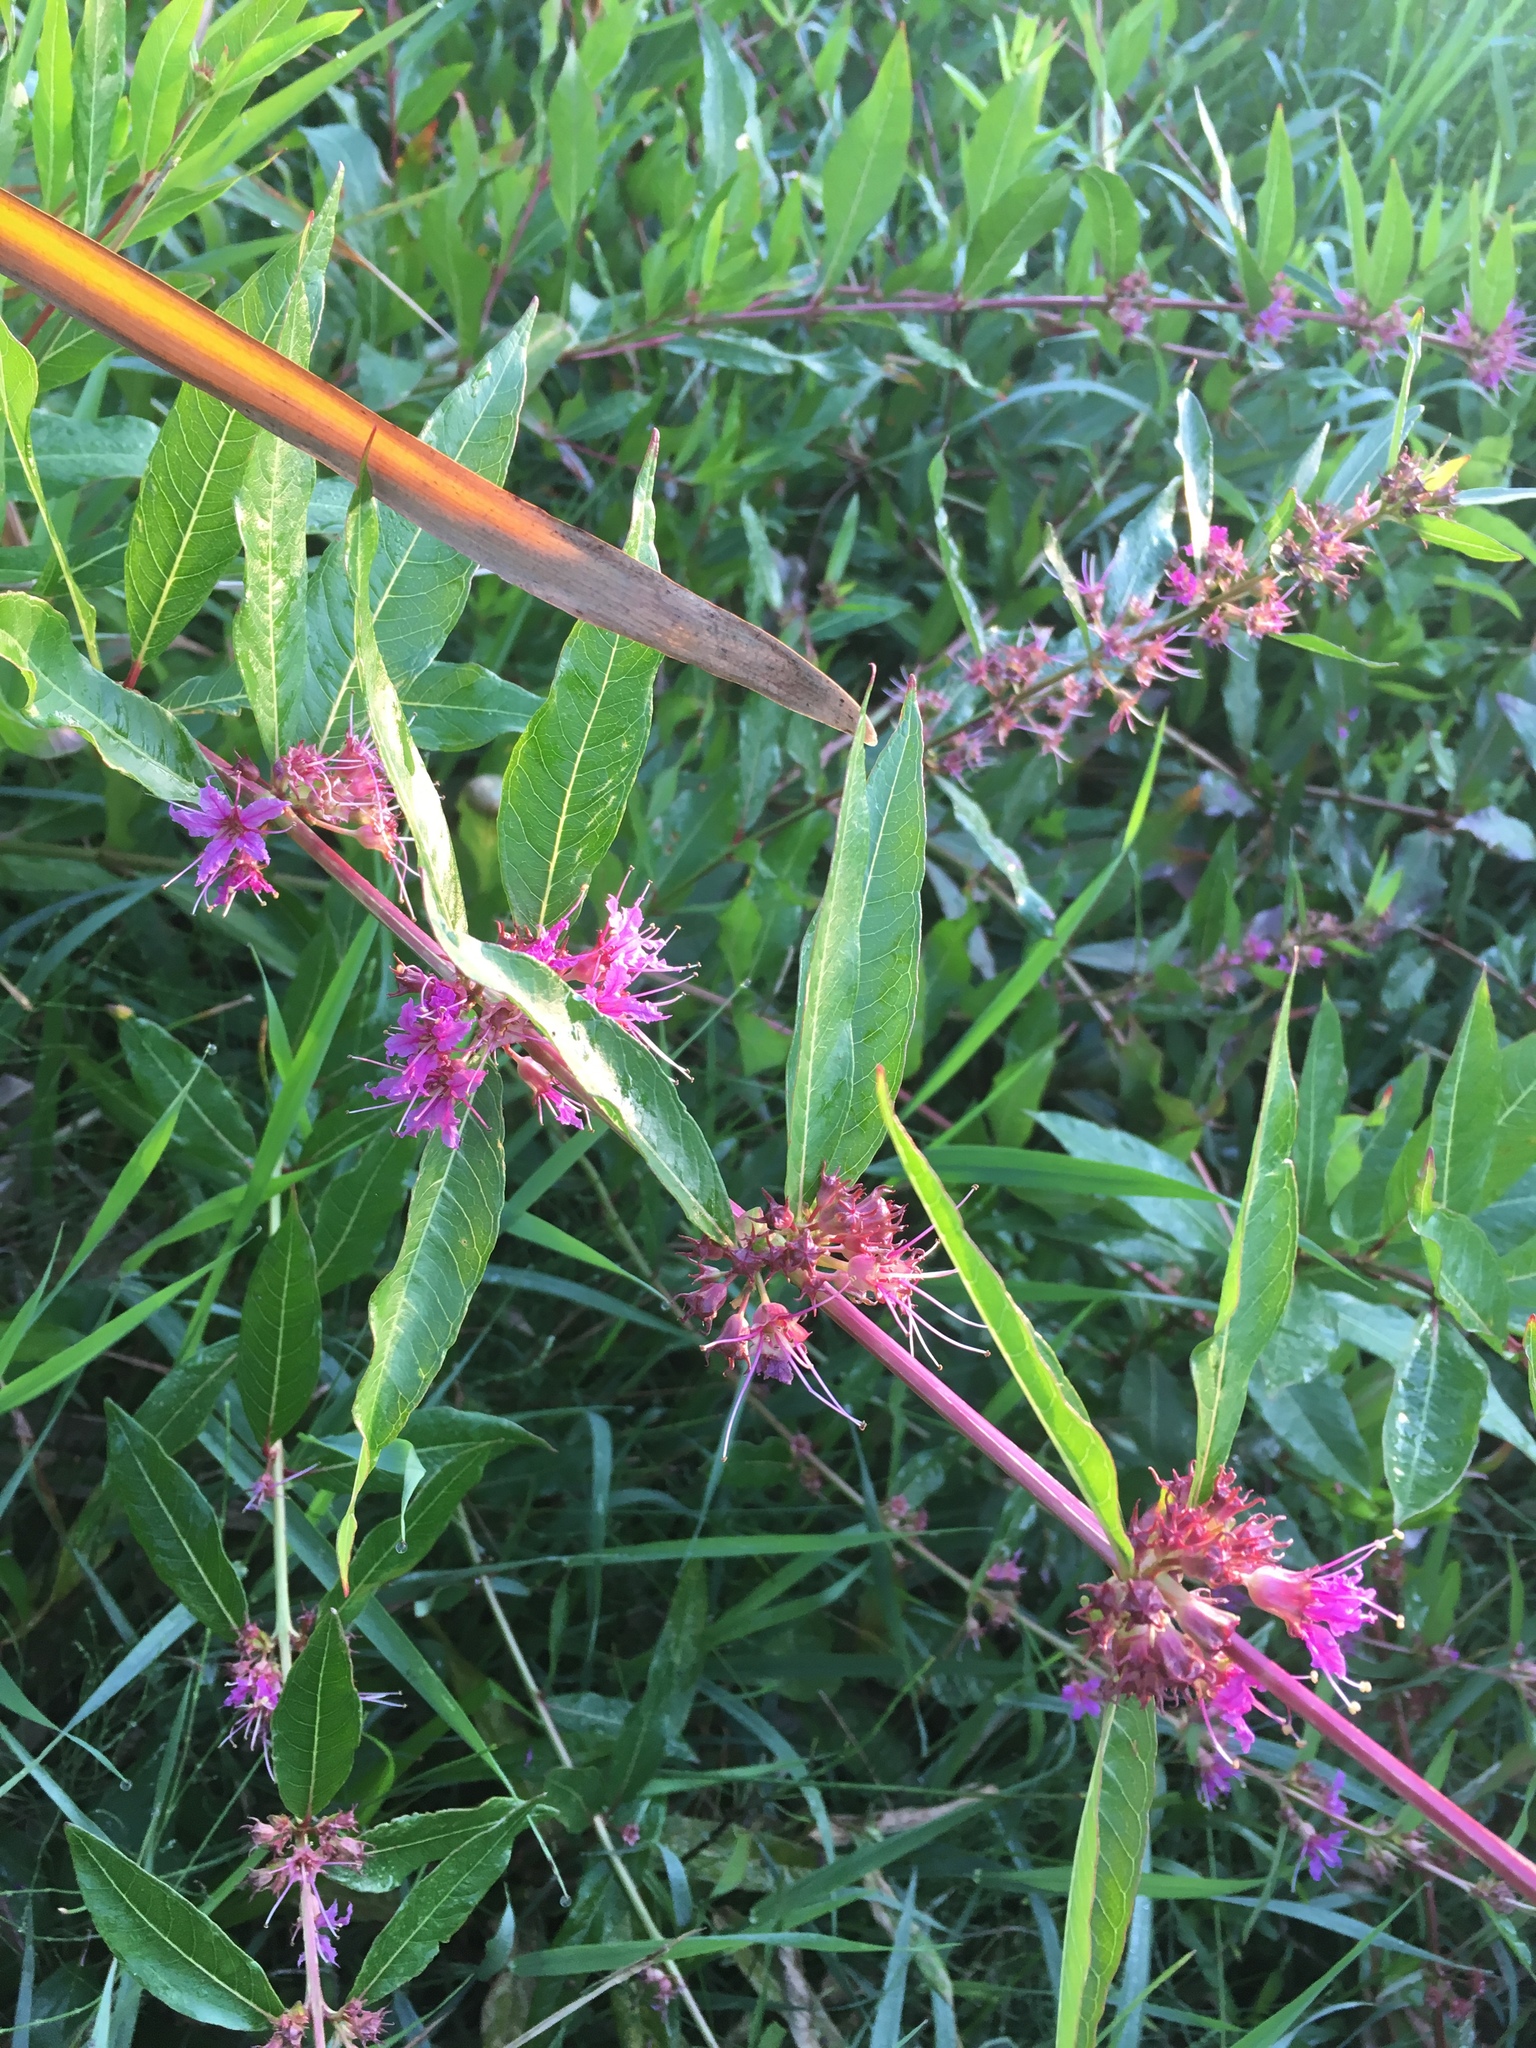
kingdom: Plantae
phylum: Tracheophyta
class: Magnoliopsida
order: Myrtales
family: Lythraceae
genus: Decodon
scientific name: Decodon verticillatus
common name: Hairy swamp loosestrife
